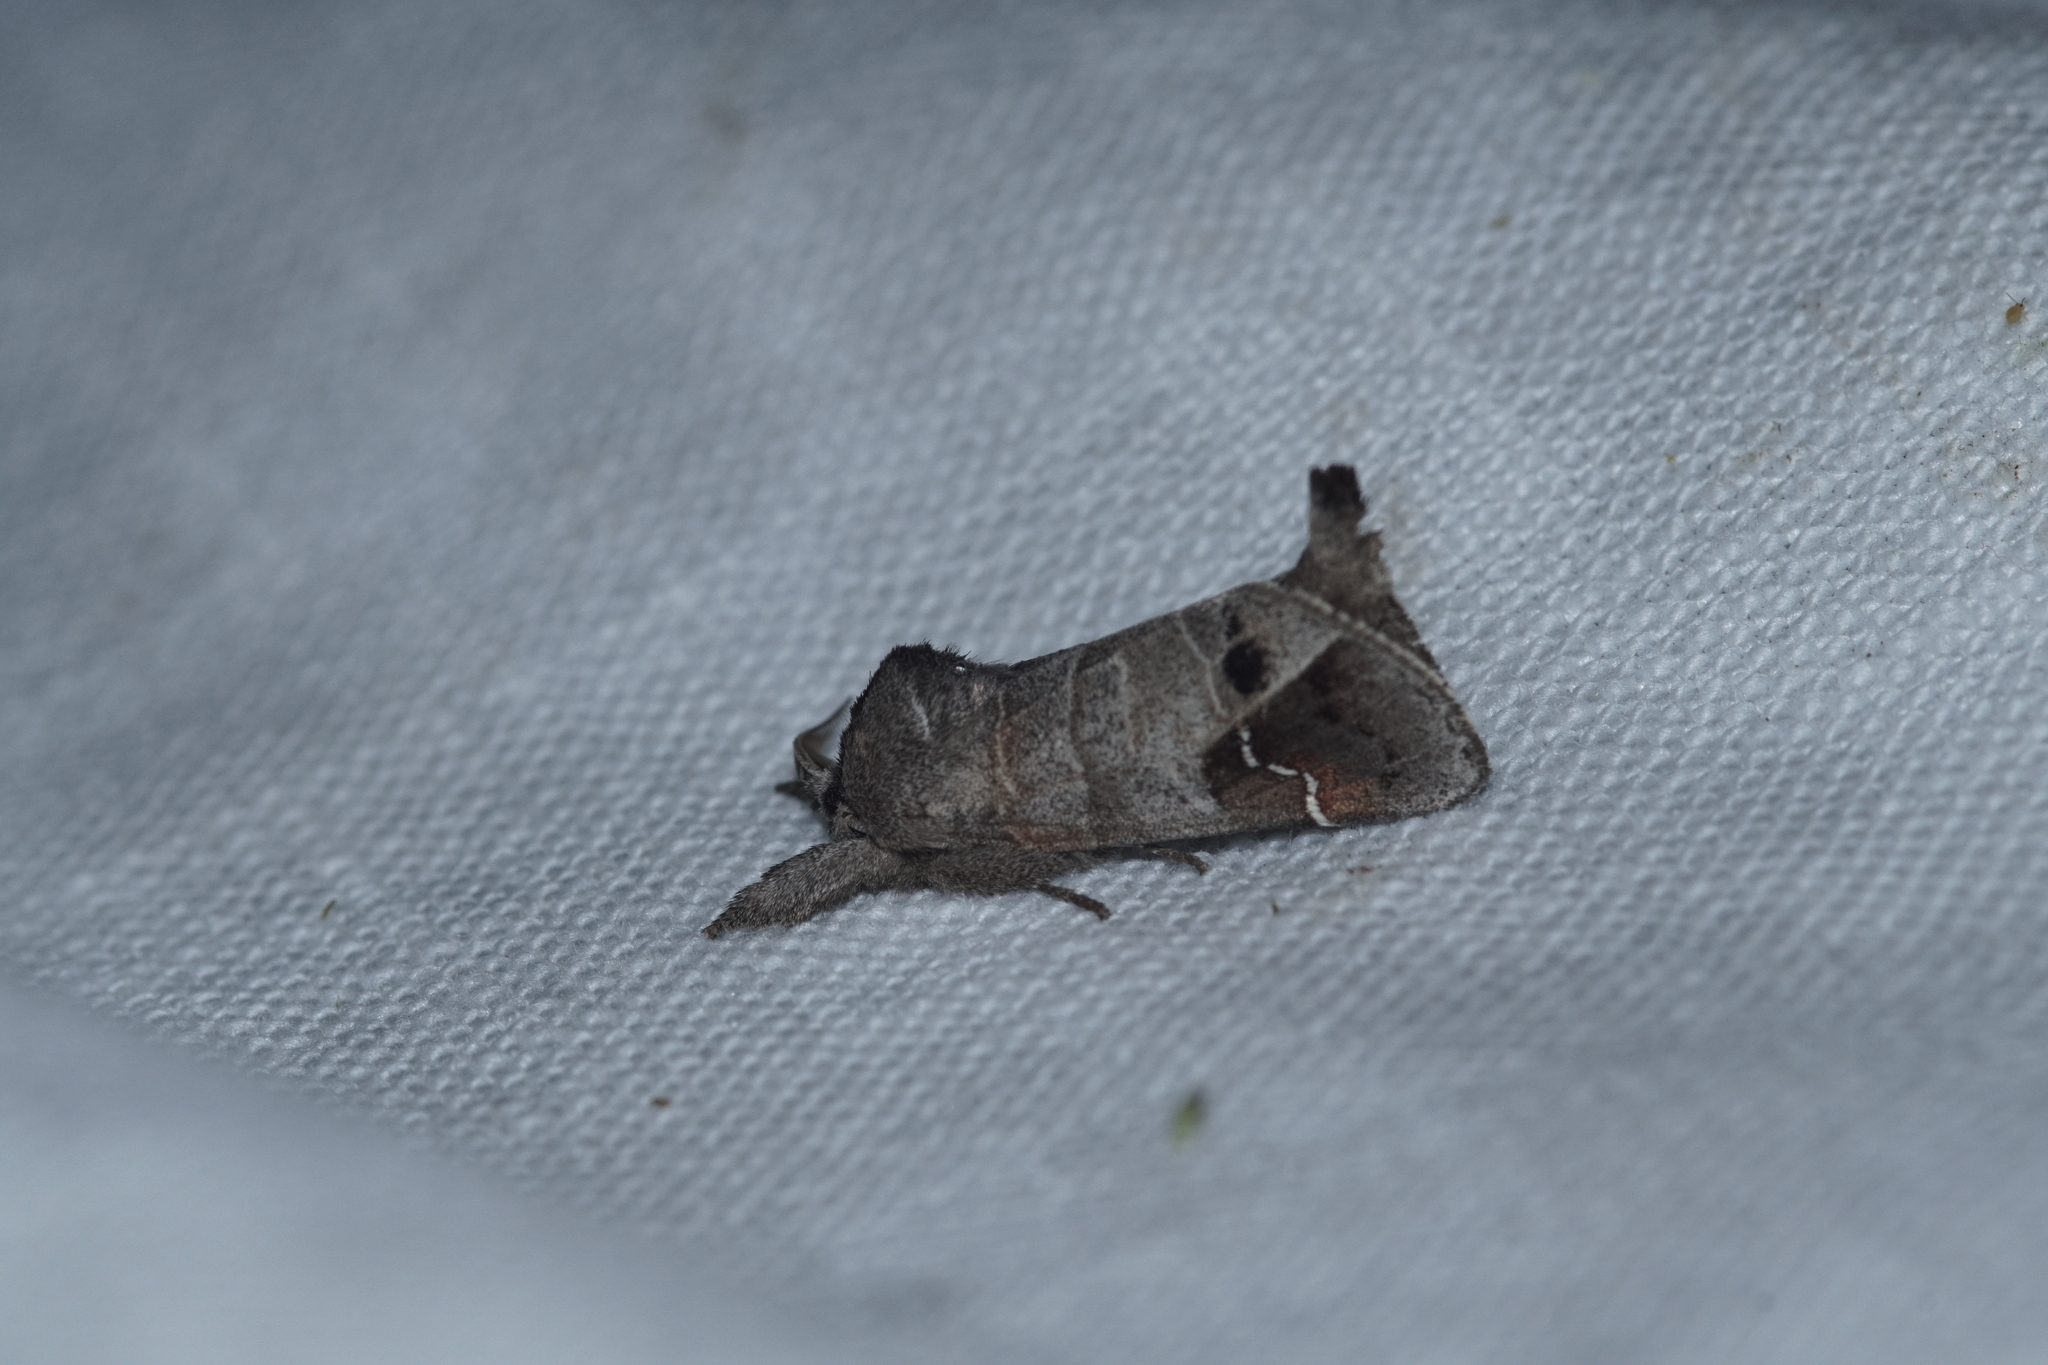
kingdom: Animalia
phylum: Arthropoda
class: Insecta
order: Lepidoptera
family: Notodontidae
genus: Clostera
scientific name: Clostera anachoreta
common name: Scarce chocolate-tip
